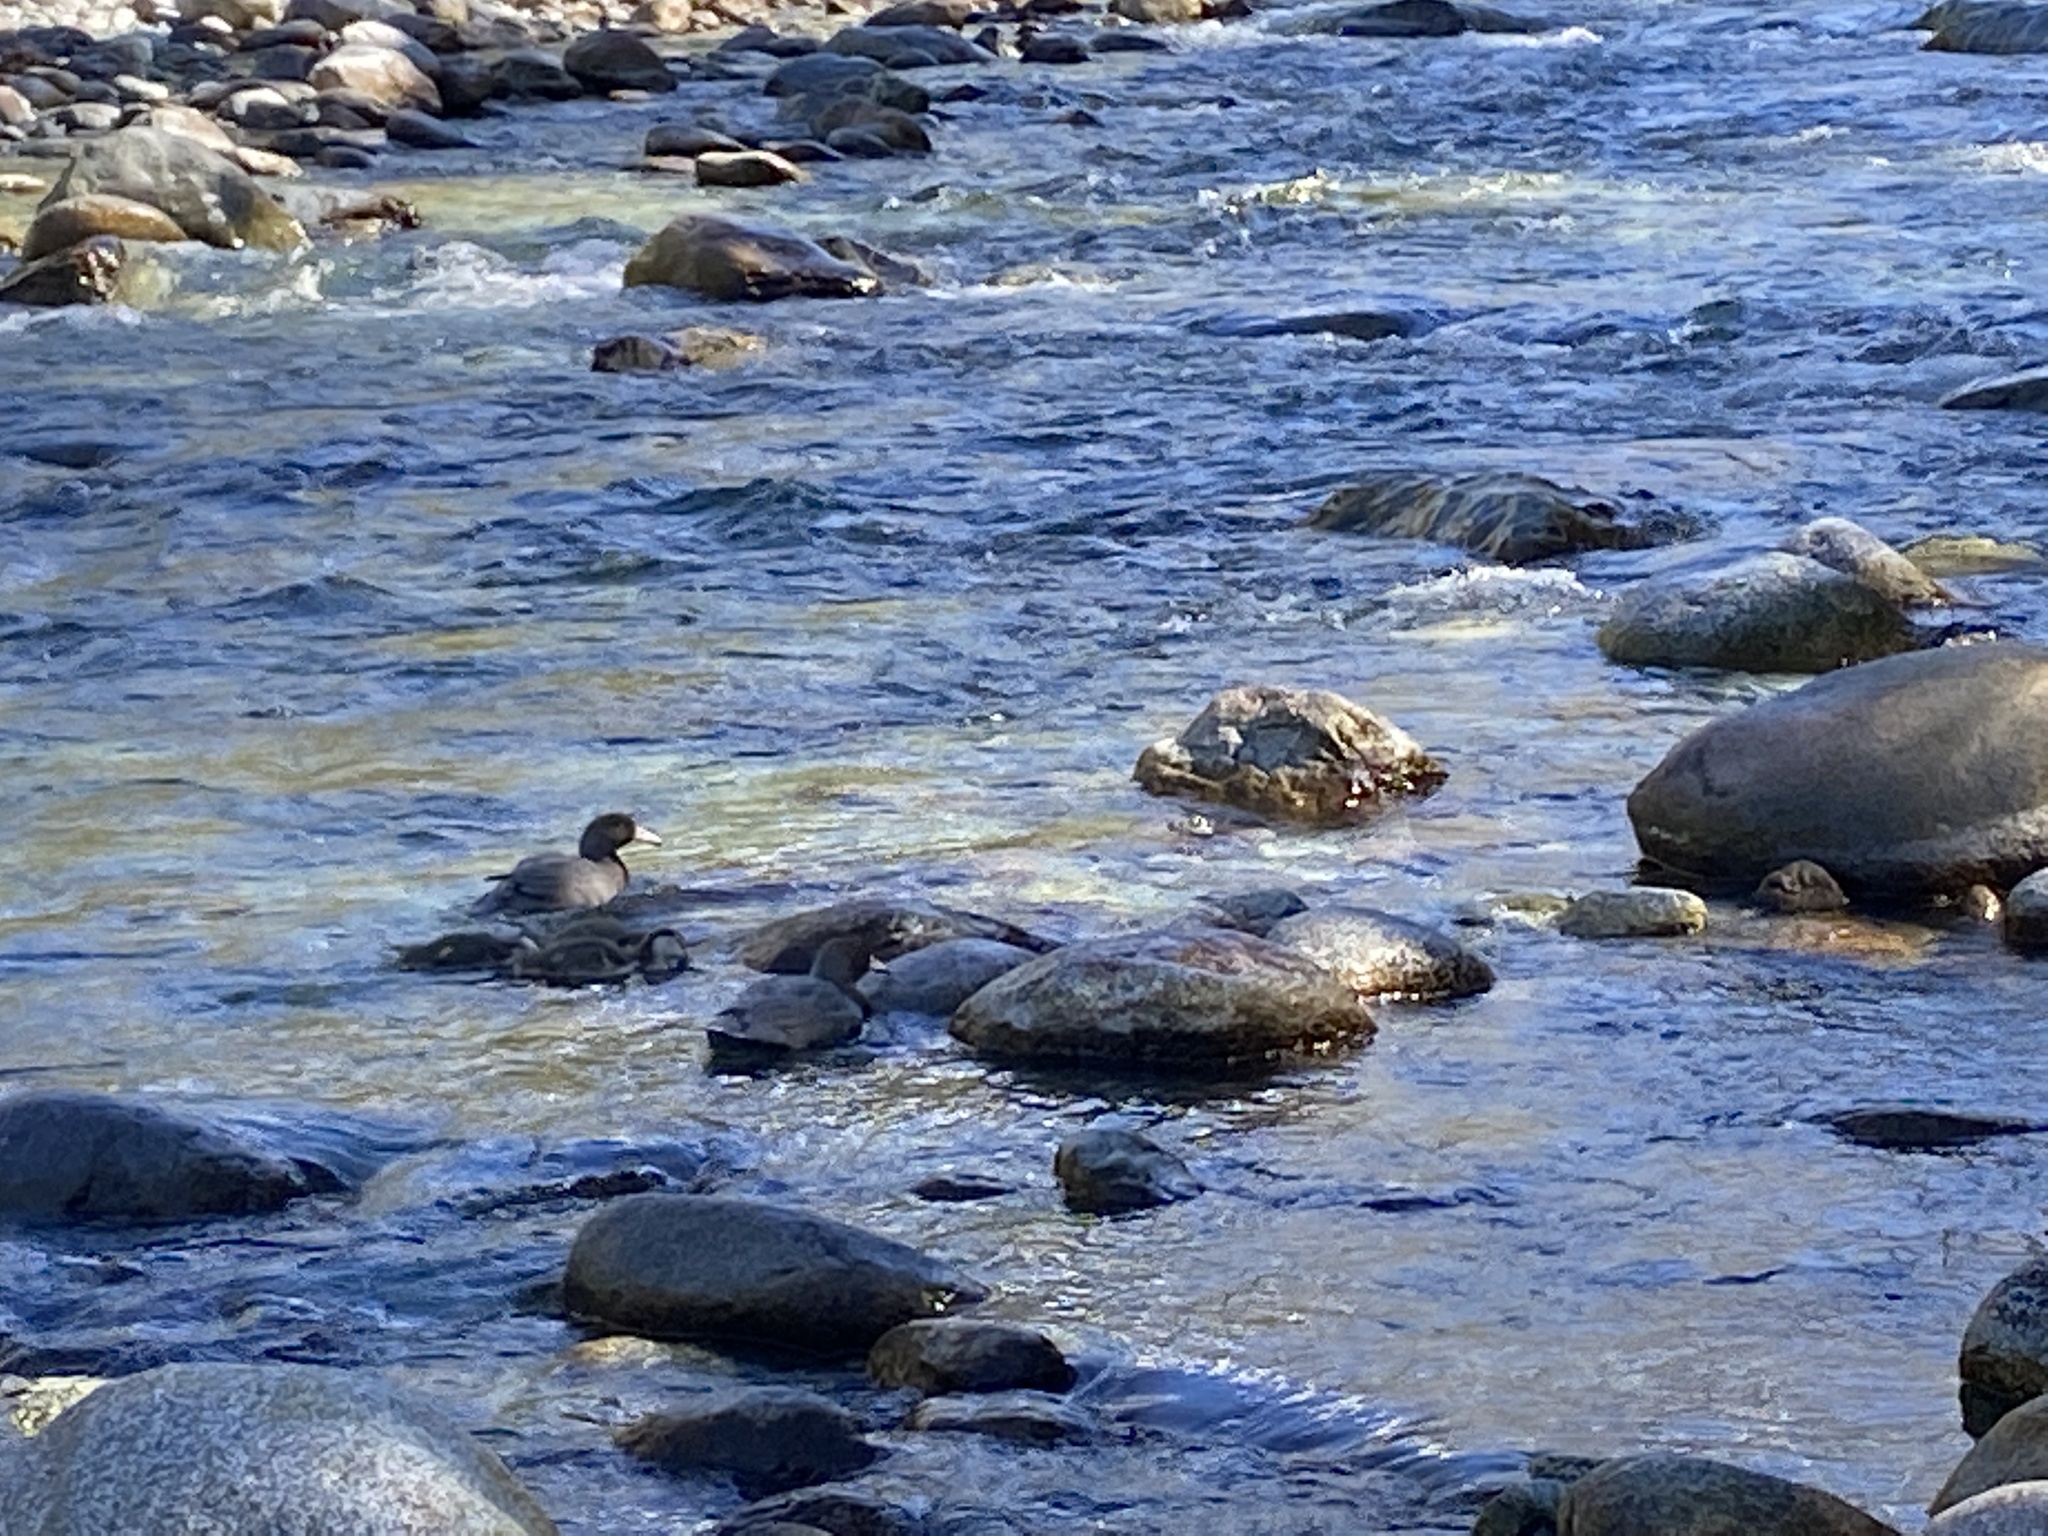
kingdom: Animalia
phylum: Chordata
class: Aves
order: Anseriformes
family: Anatidae
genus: Hymenolaimus
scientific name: Hymenolaimus malacorhynchos
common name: Blue duck
